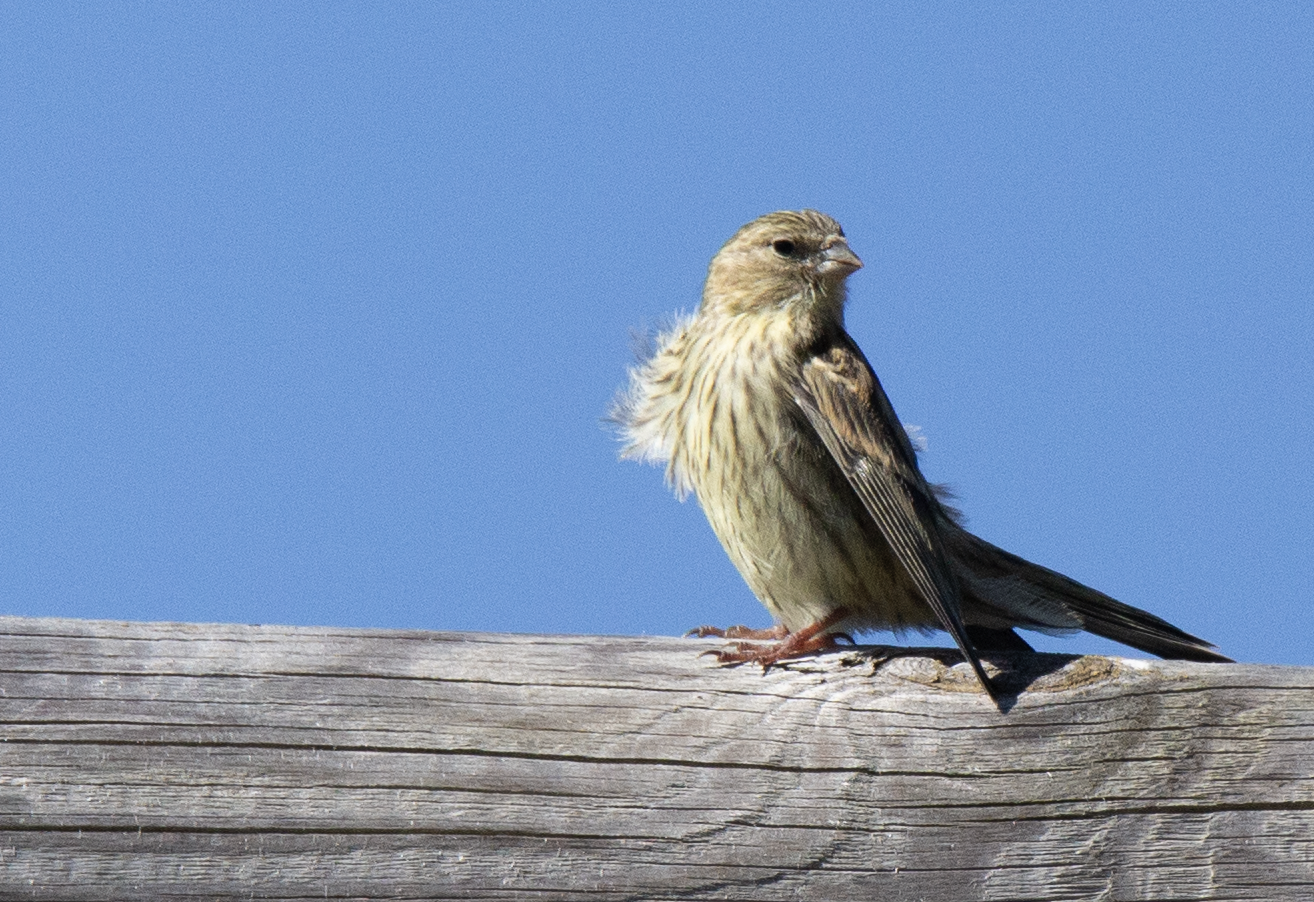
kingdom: Animalia
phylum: Chordata
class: Aves
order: Passeriformes
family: Fringillidae
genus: Serinus
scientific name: Serinus serinus
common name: European serin
